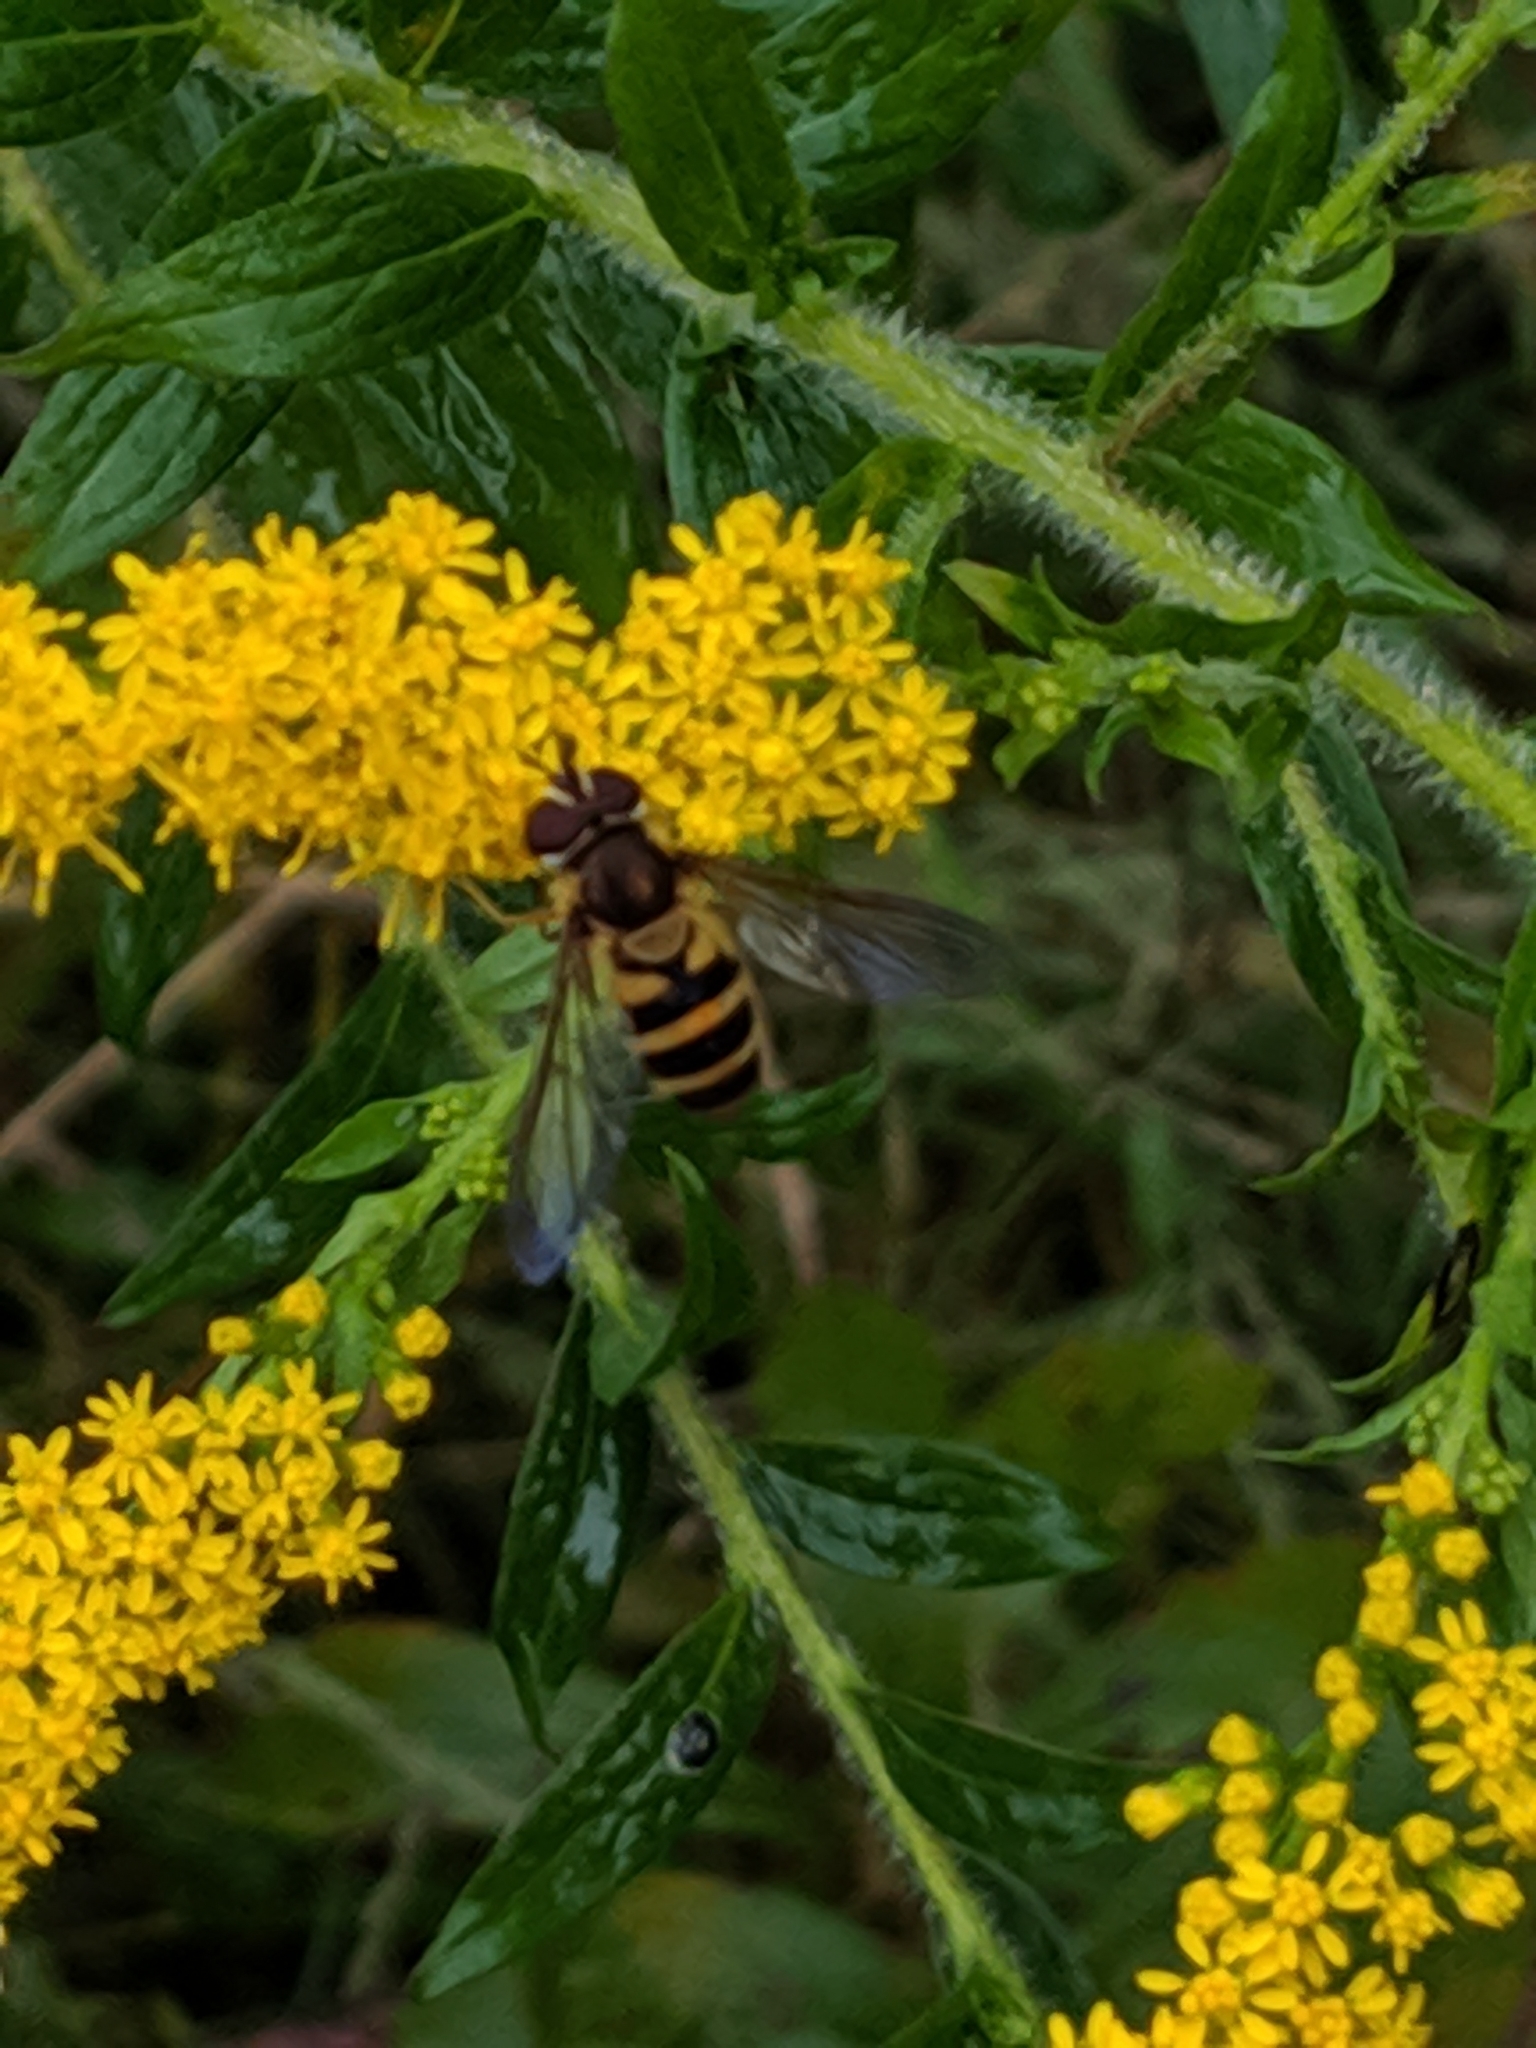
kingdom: Animalia
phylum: Arthropoda
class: Insecta
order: Diptera
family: Syrphidae
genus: Epistrophe
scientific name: Epistrophe grossulariae
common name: Black-horned smoothtail
